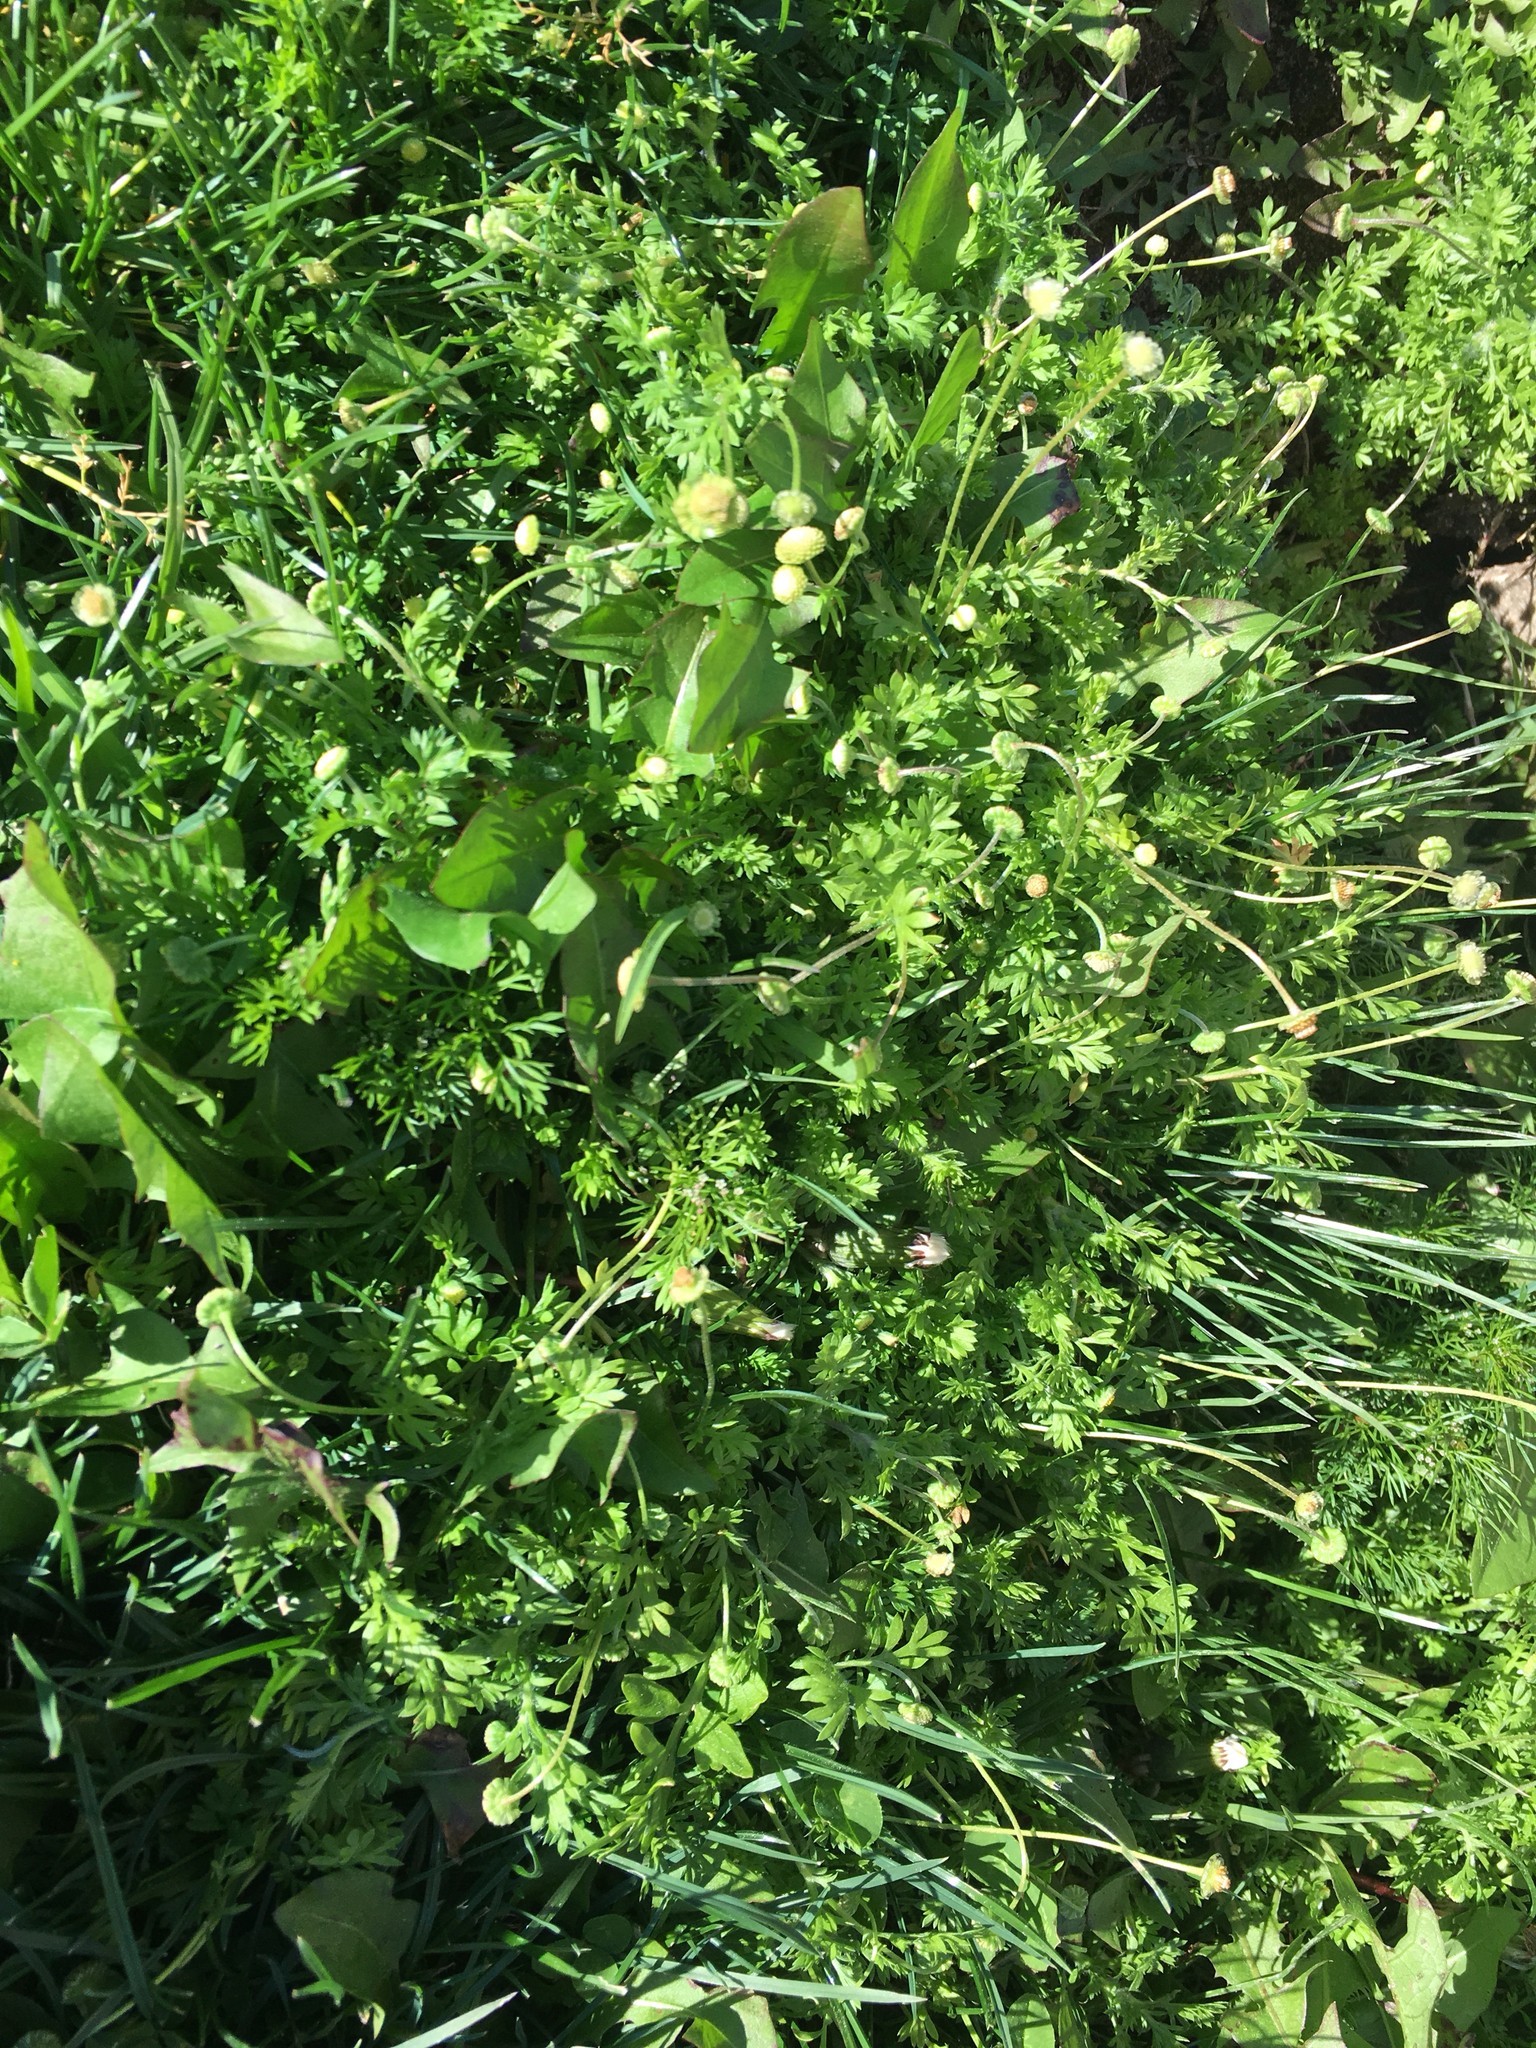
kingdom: Plantae
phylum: Tracheophyta
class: Magnoliopsida
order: Asterales
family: Asteraceae
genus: Cotula
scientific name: Cotula australis
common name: Australian waterbuttons
